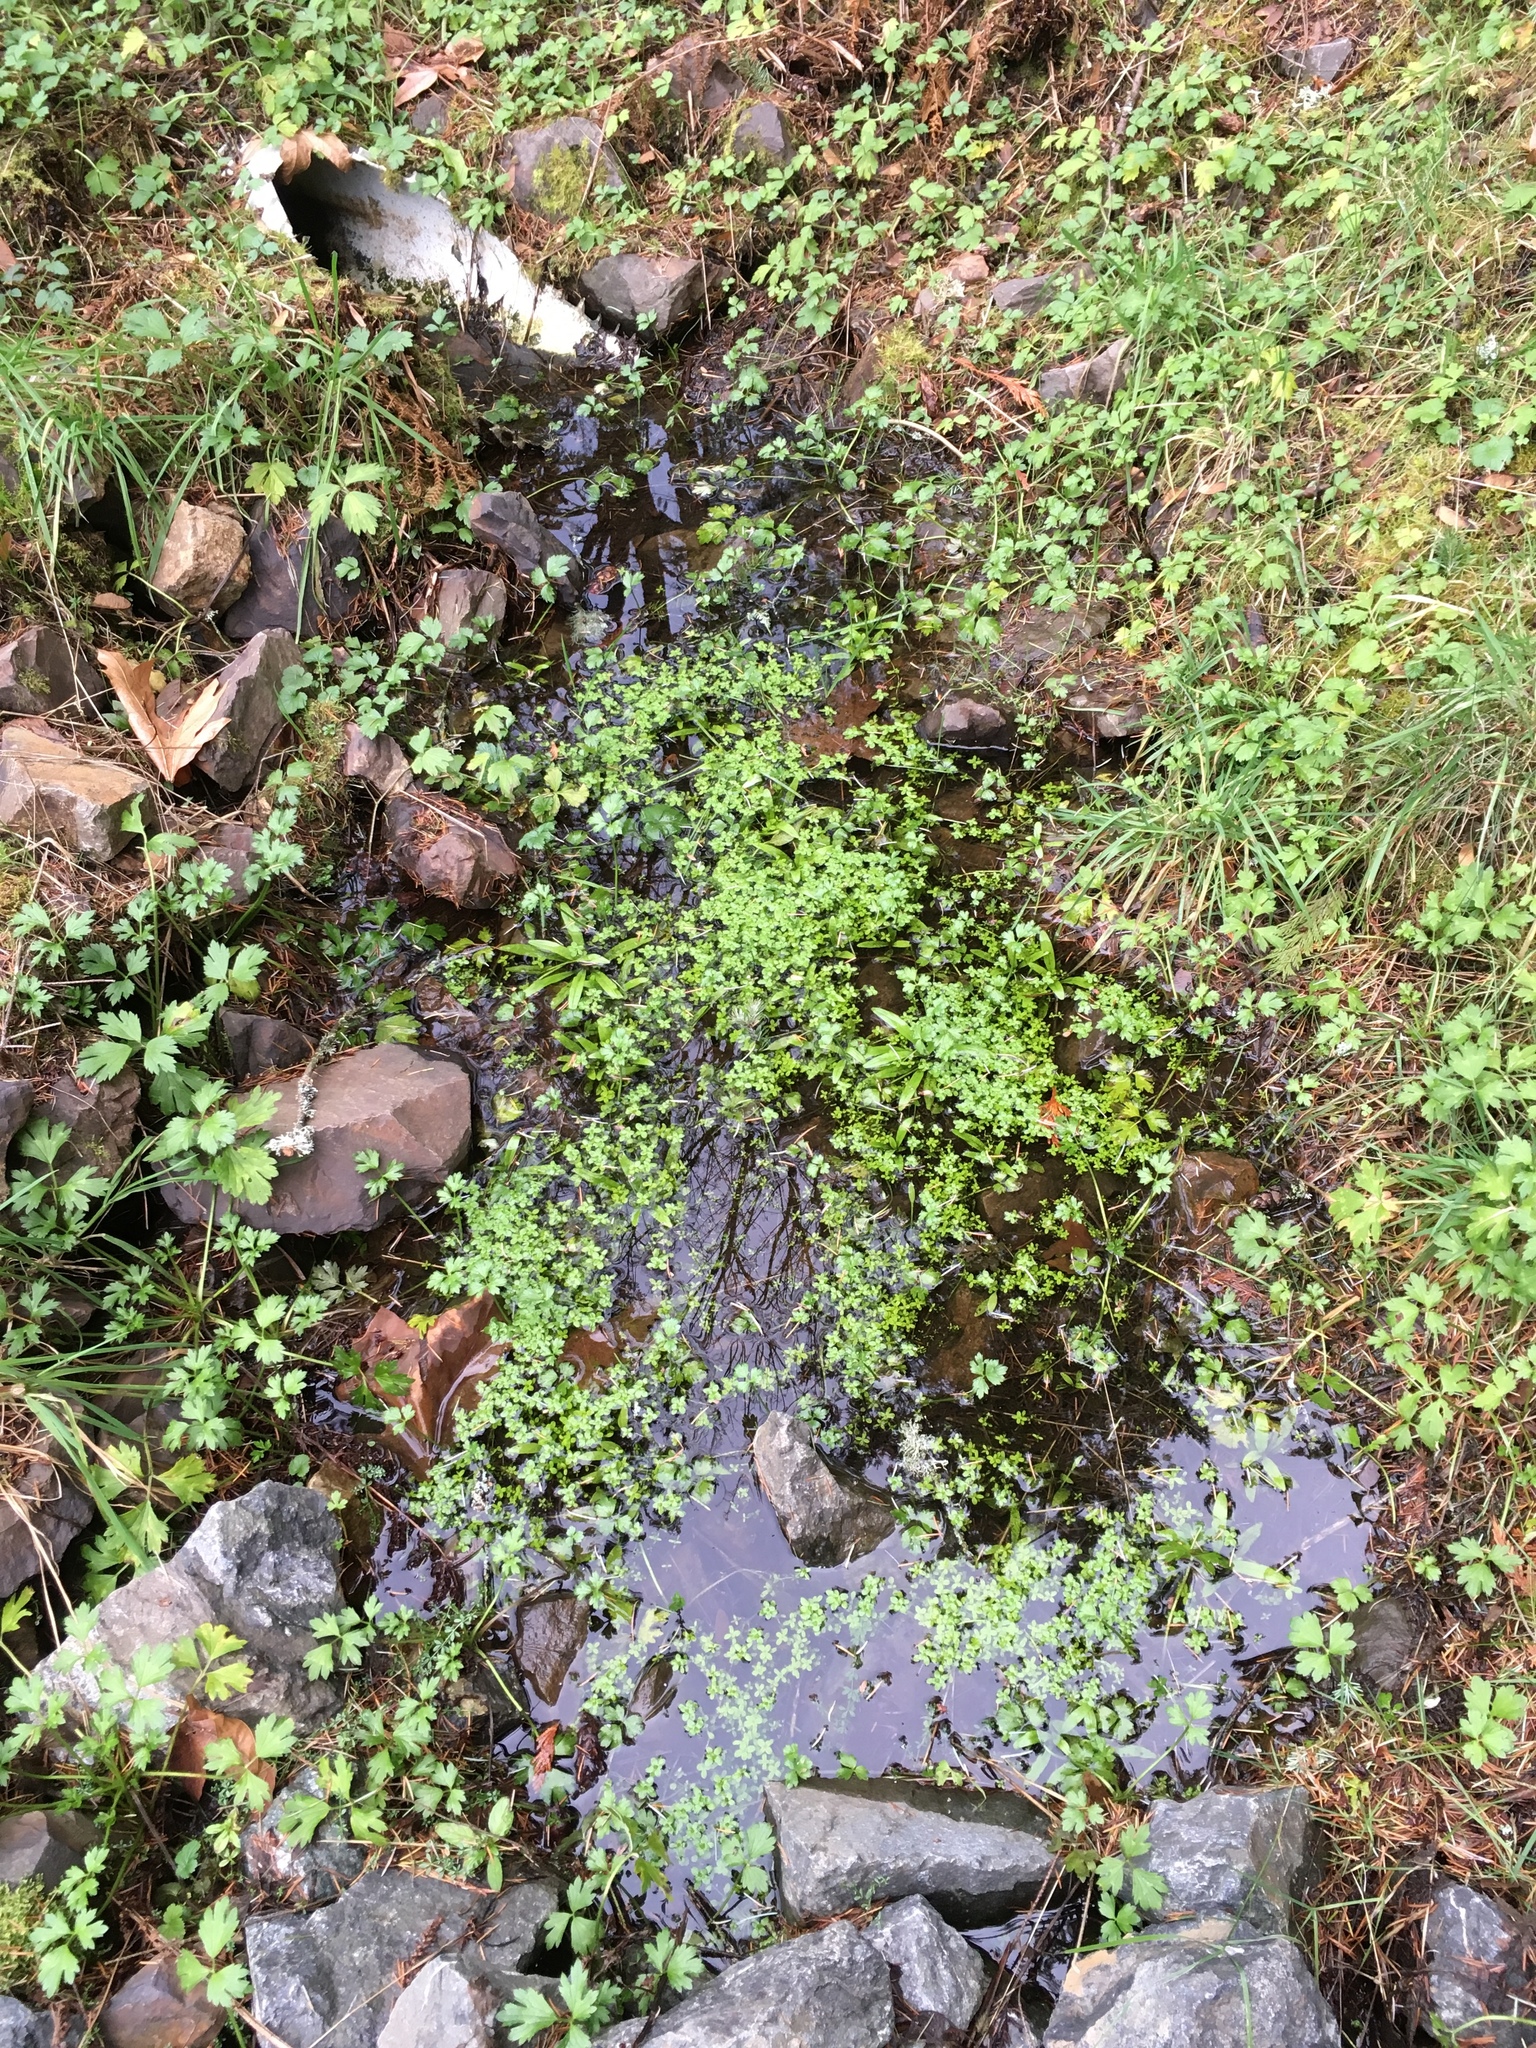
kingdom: Plantae
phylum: Tracheophyta
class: Magnoliopsida
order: Lamiales
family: Plantaginaceae
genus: Callitriche
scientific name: Callitriche stagnalis
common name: Common water-starwort
